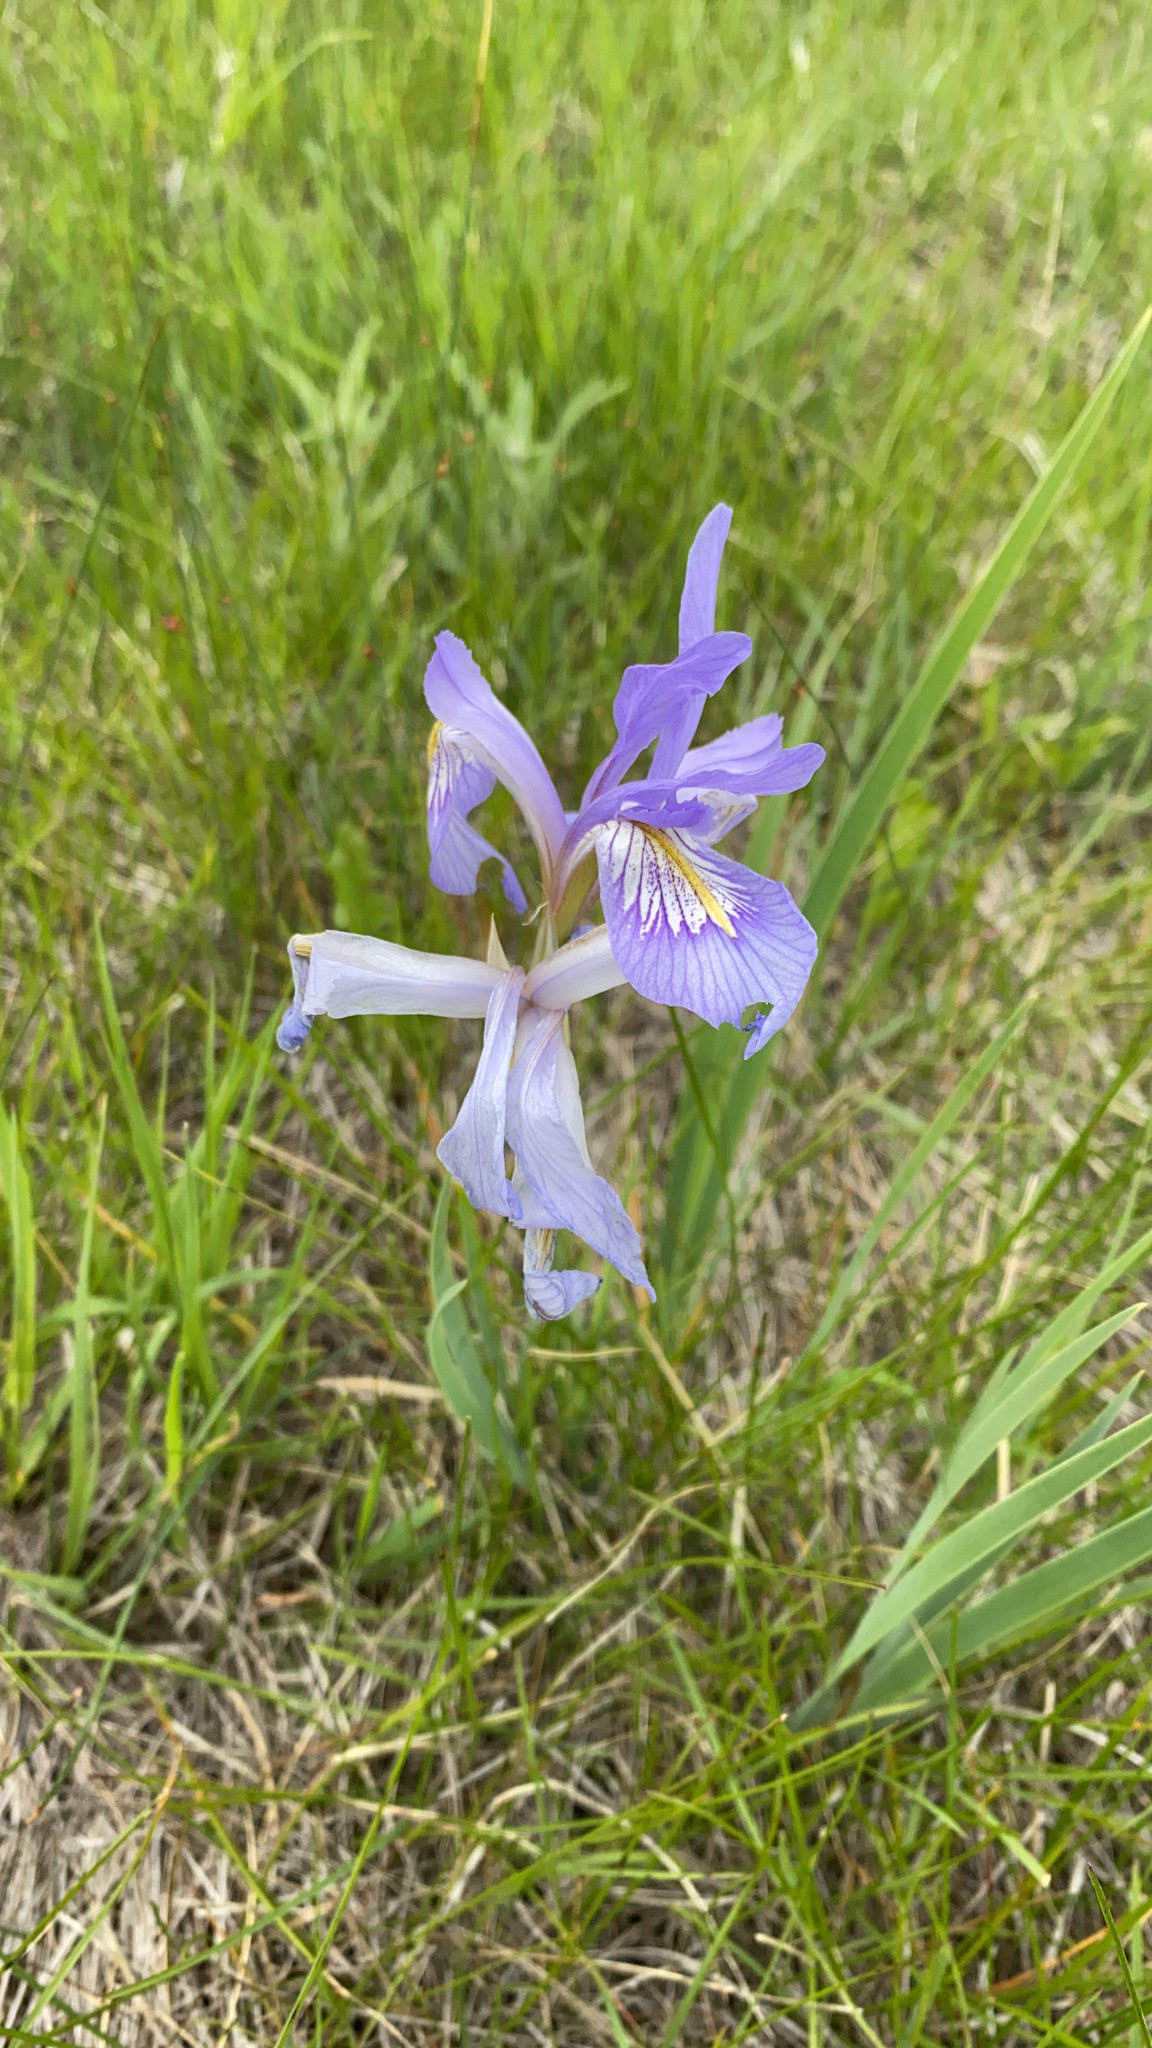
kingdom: Plantae
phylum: Tracheophyta
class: Liliopsida
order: Asparagales
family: Iridaceae
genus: Iris
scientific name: Iris missouriensis
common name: Rocky mountain iris
